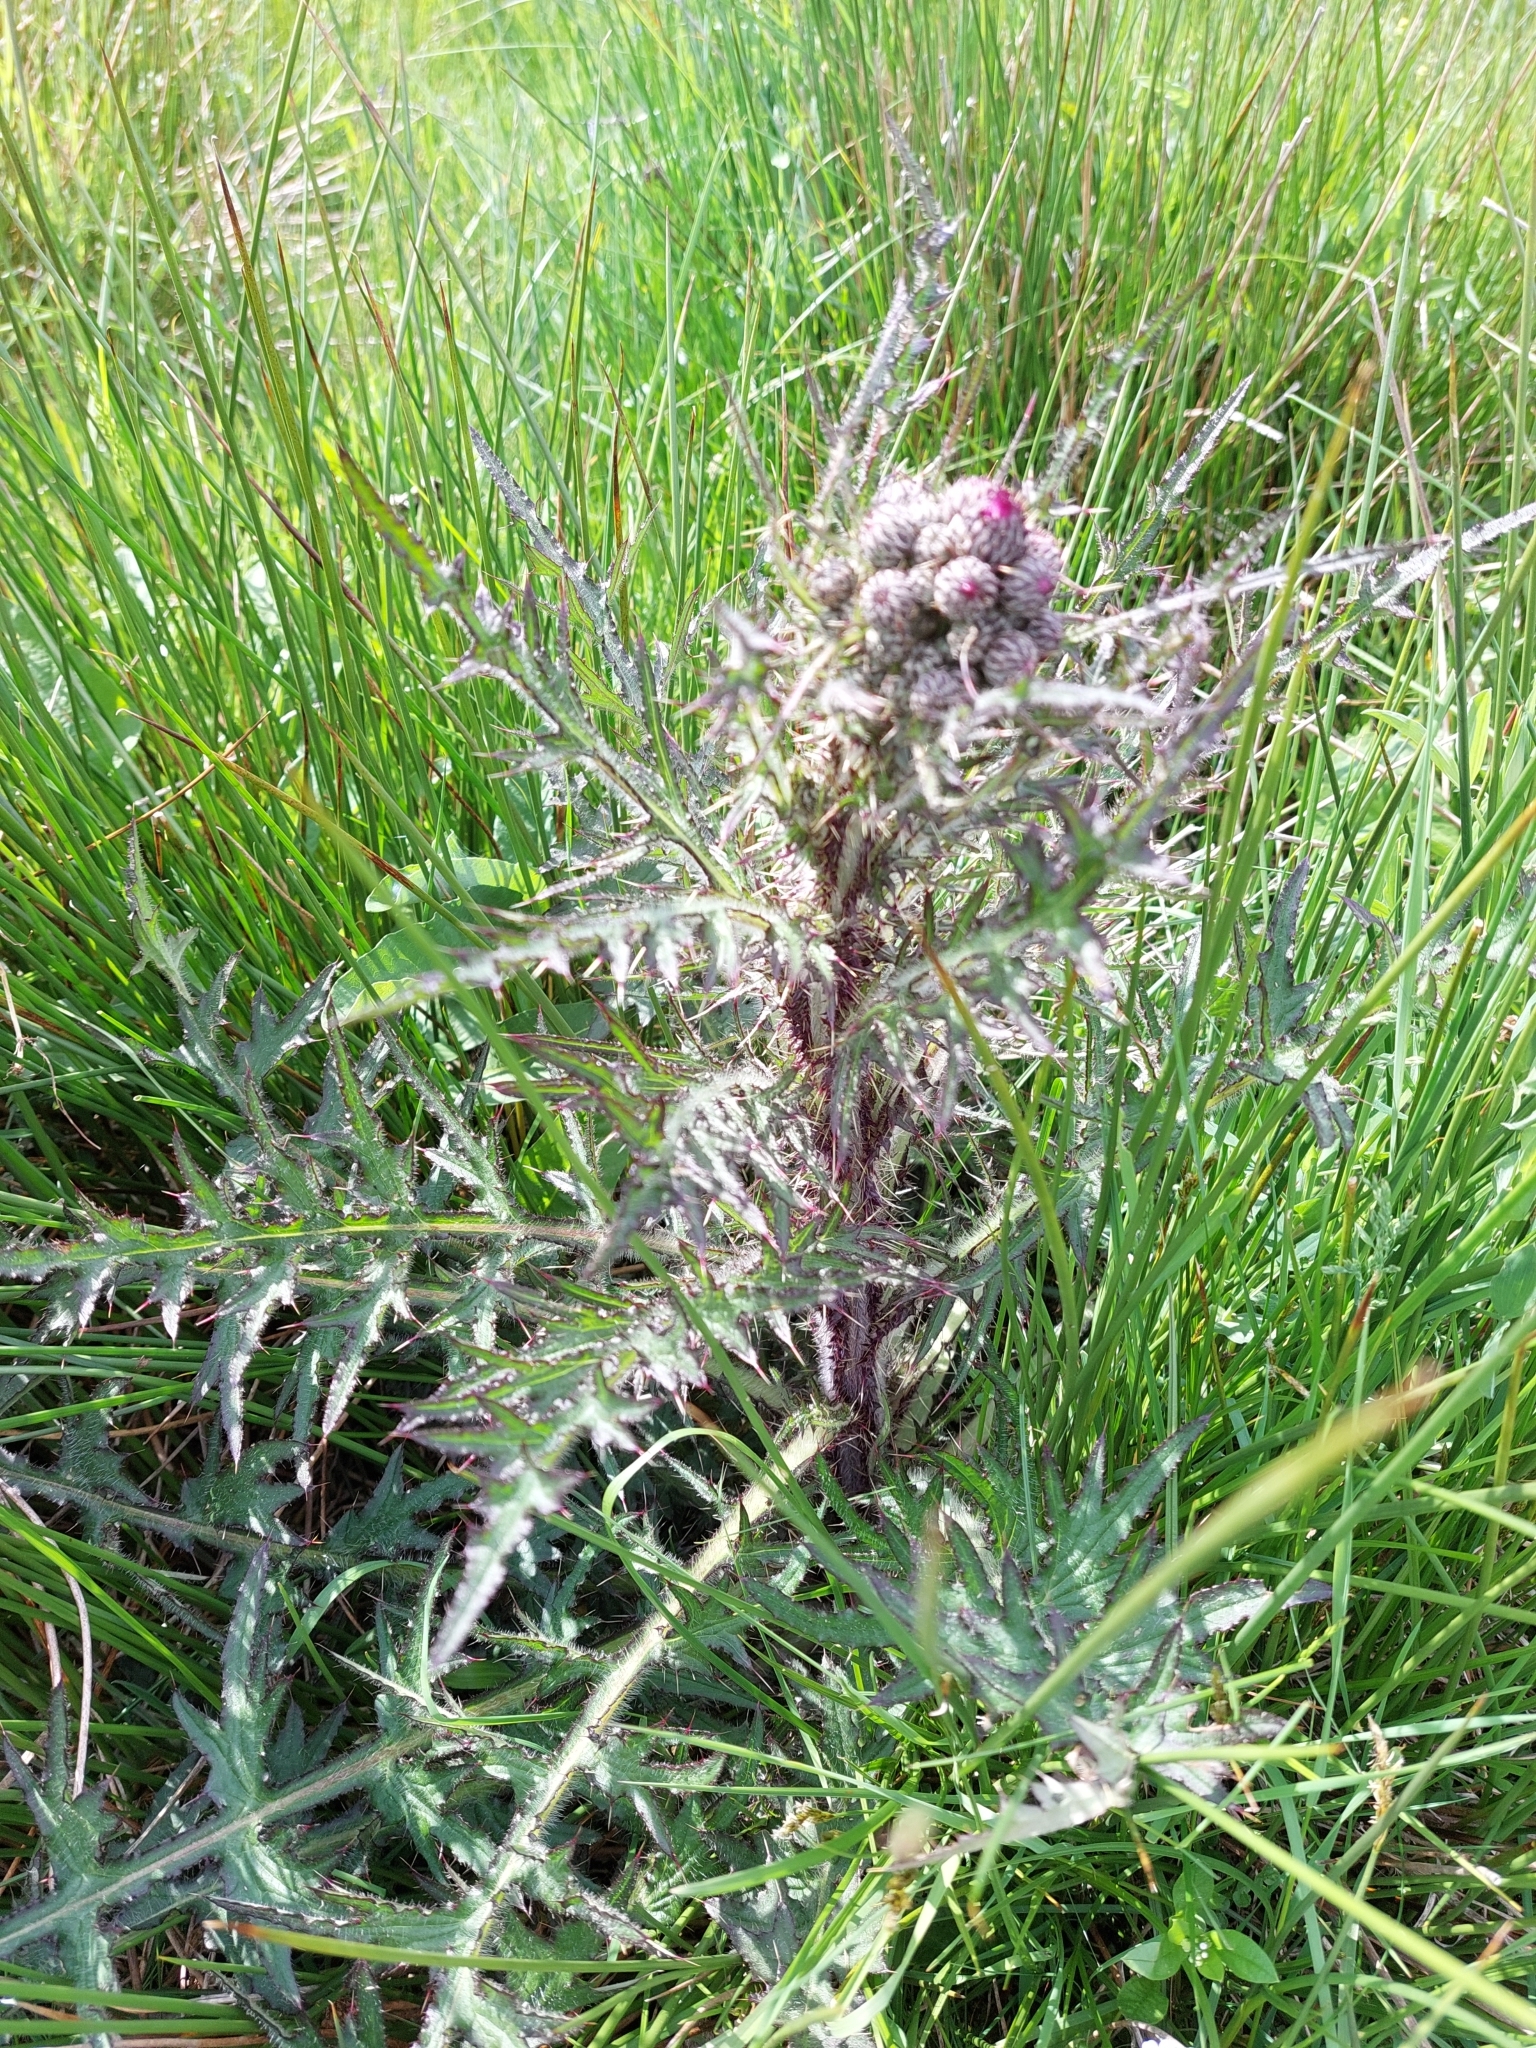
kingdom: Plantae
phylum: Tracheophyta
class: Magnoliopsida
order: Asterales
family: Asteraceae
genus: Cirsium
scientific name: Cirsium palustre
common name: Marsh thistle
